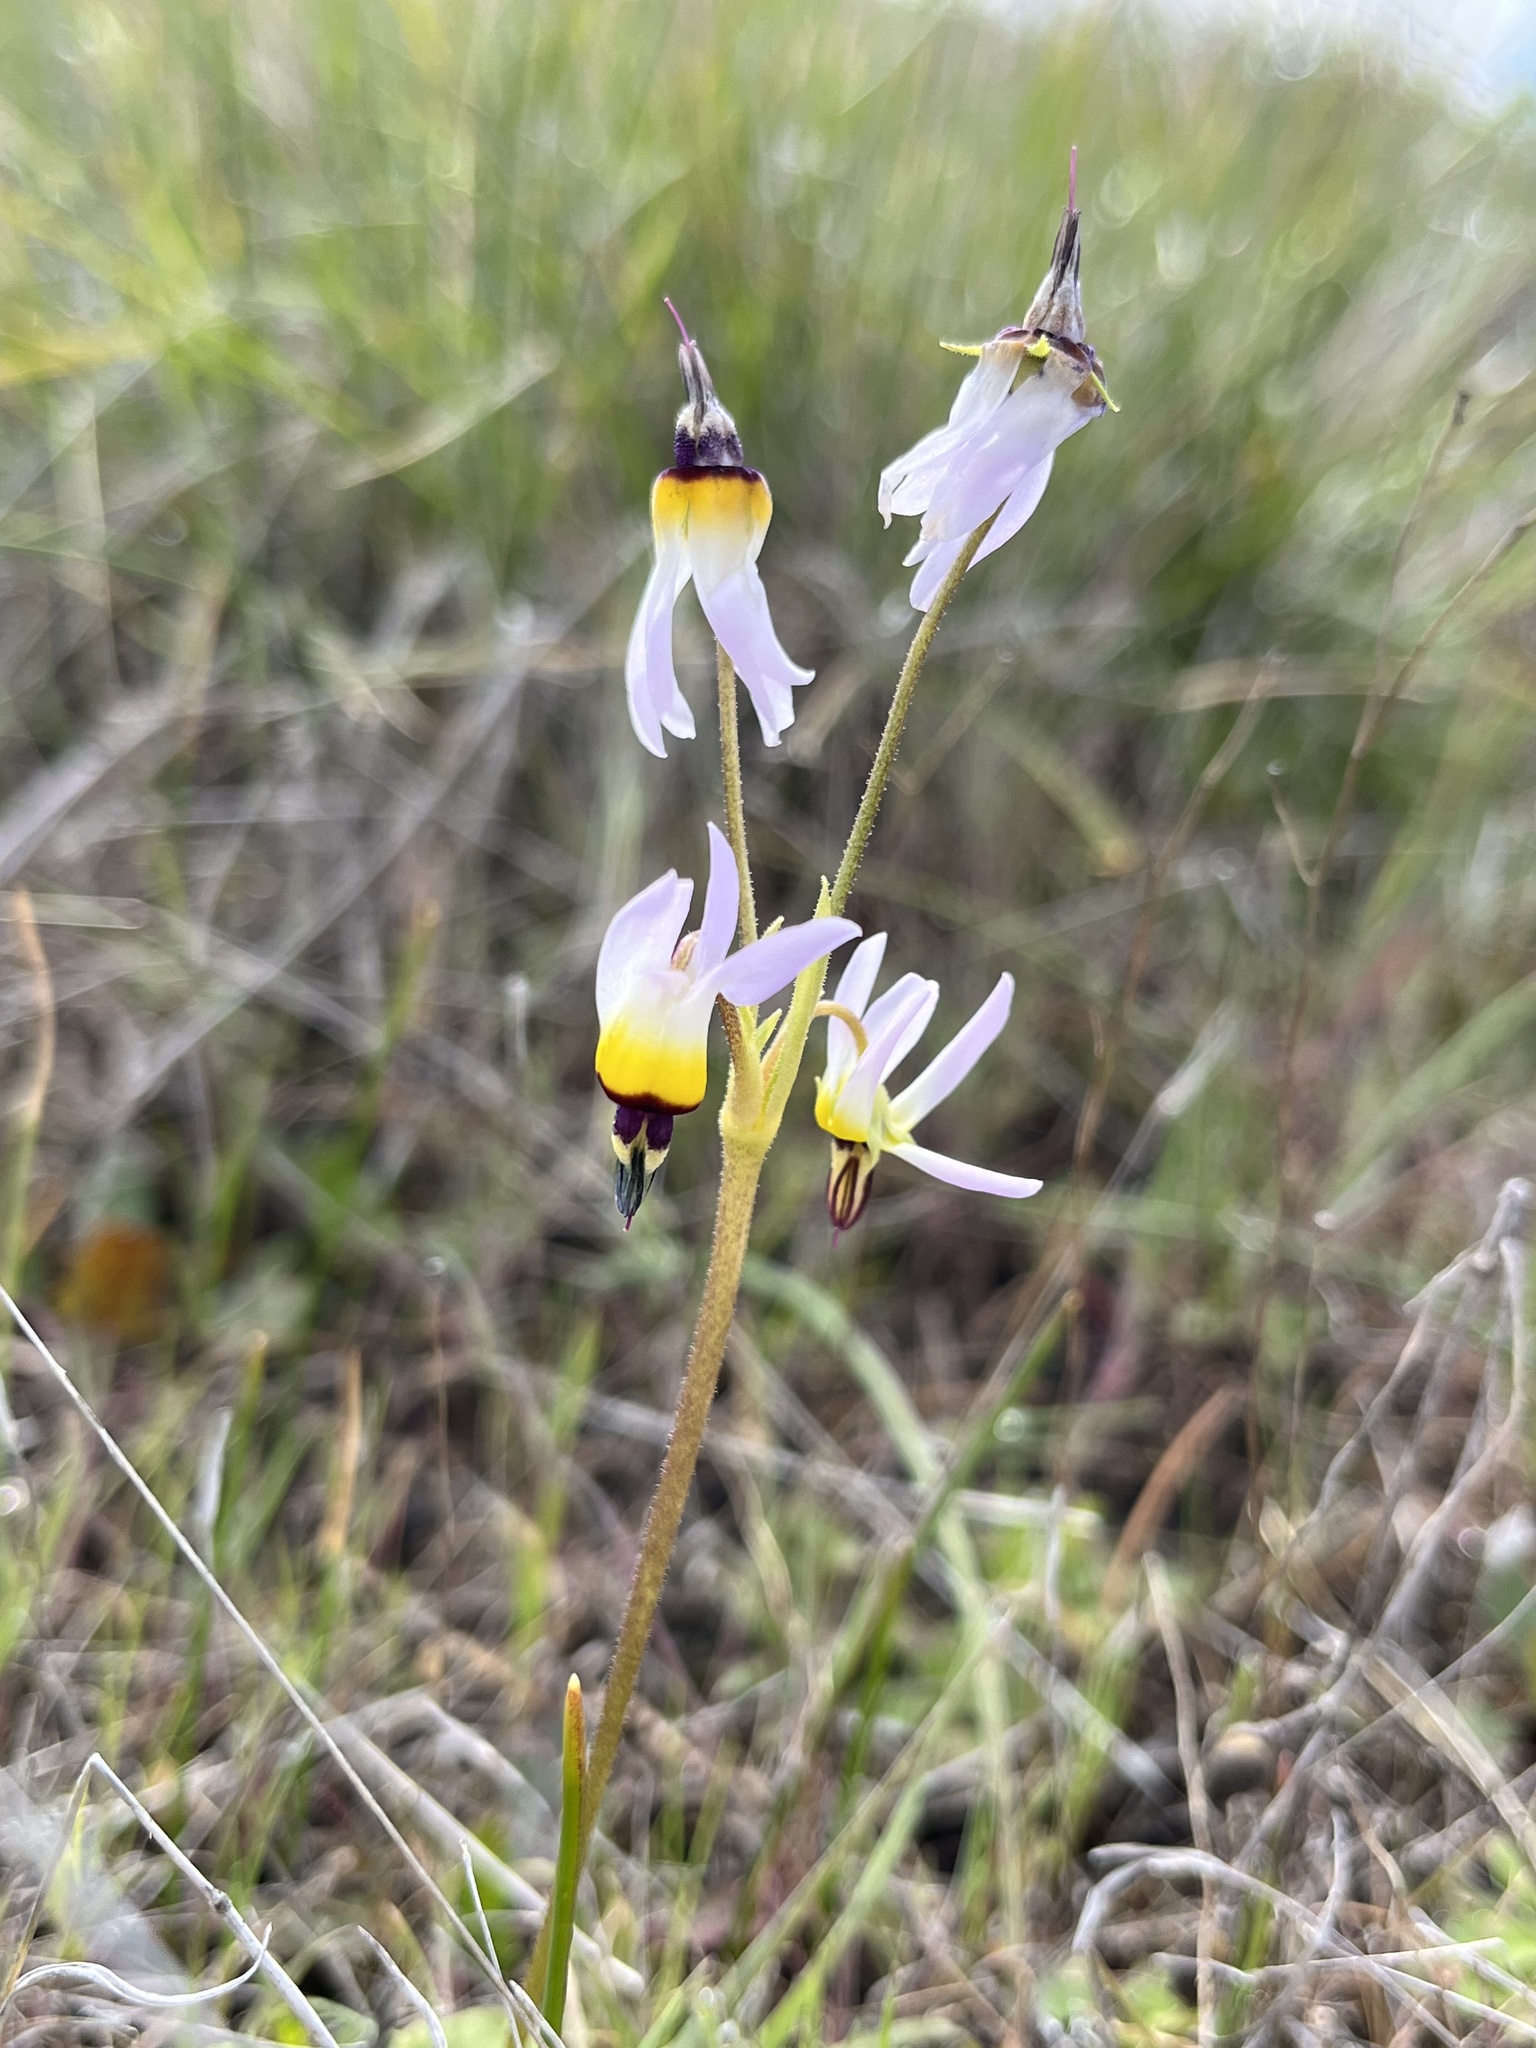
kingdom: Plantae
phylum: Tracheophyta
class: Magnoliopsida
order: Ericales
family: Primulaceae
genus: Dodecatheon
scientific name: Dodecatheon clevelandii
